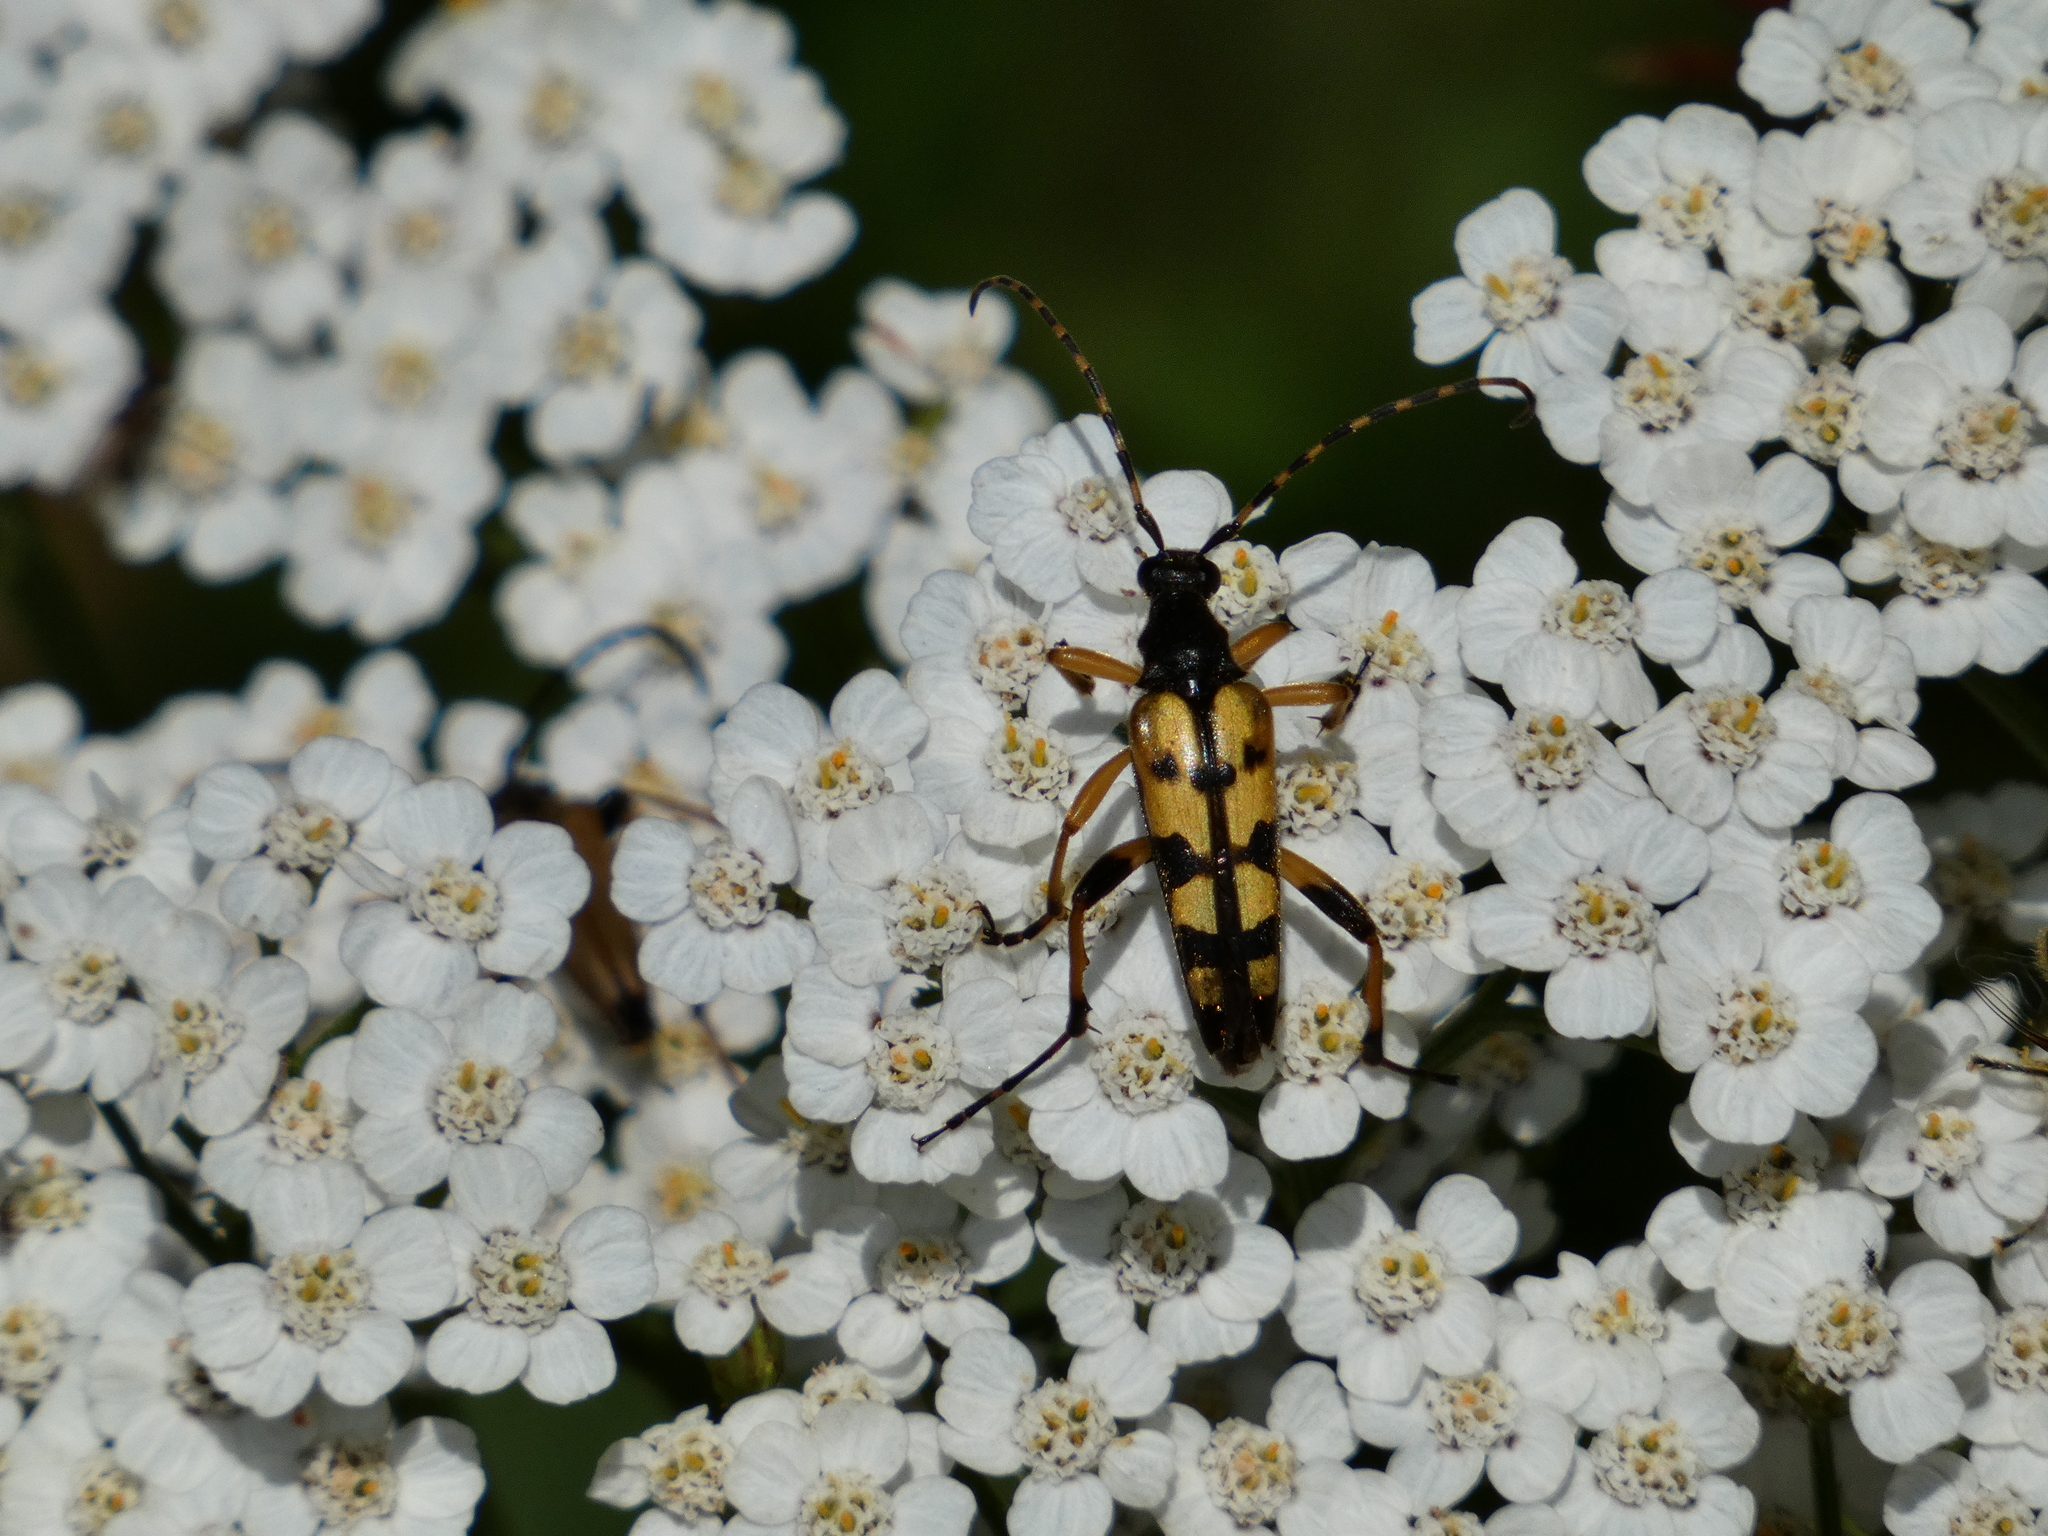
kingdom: Animalia
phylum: Arthropoda
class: Insecta
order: Coleoptera
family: Cerambycidae
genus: Rutpela
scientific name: Rutpela maculata
